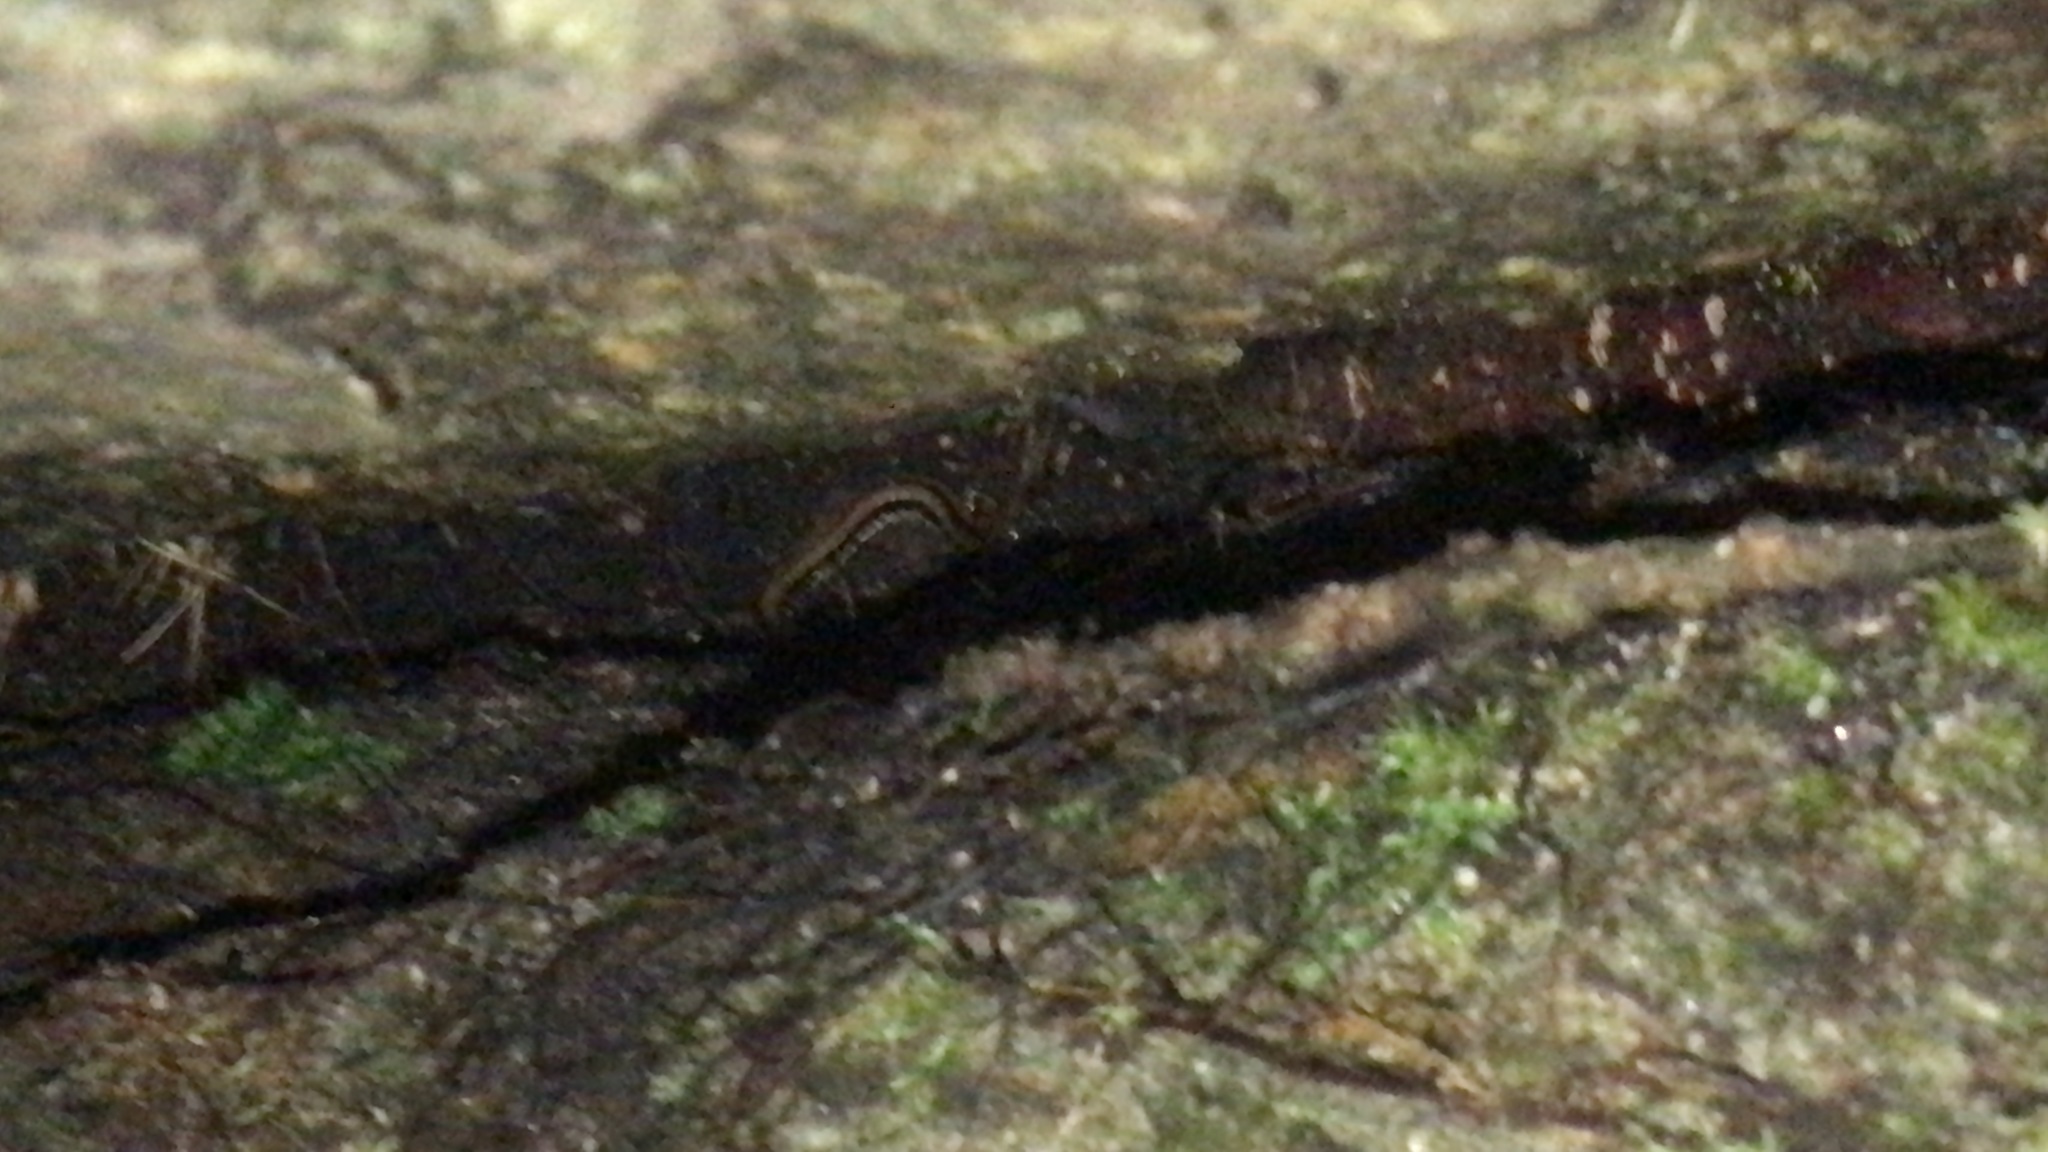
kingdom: Animalia
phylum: Chordata
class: Amphibia
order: Caudata
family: Plethodontidae
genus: Eurycea
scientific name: Eurycea guttolineata
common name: Three-lined salamander
